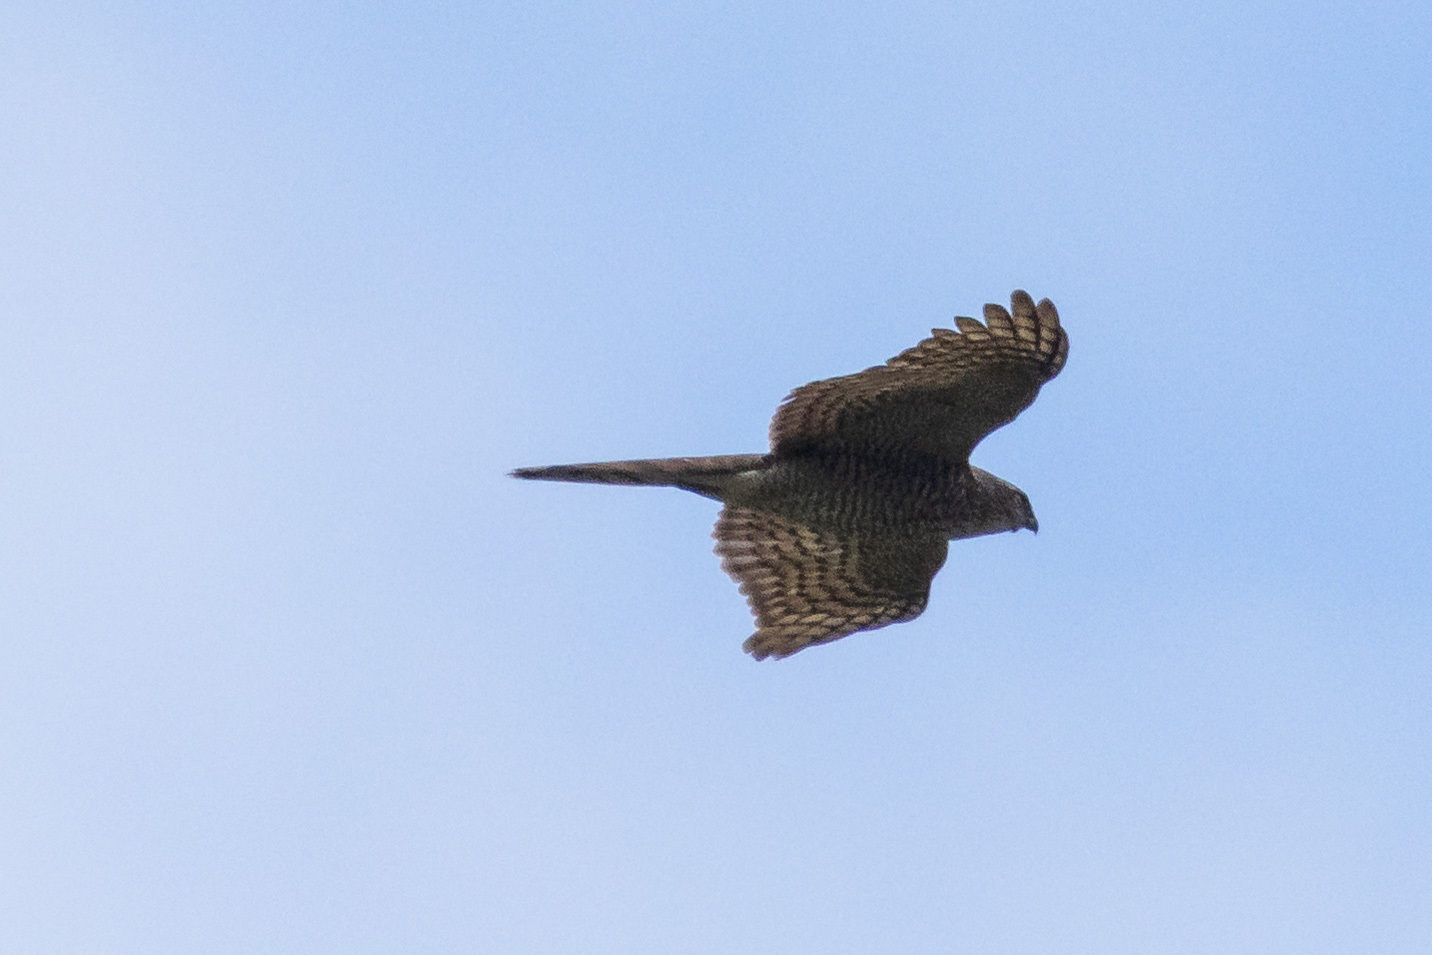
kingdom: Animalia
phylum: Chordata
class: Aves
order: Accipitriformes
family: Accipitridae
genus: Accipiter
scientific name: Accipiter nisus
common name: Eurasian sparrowhawk
